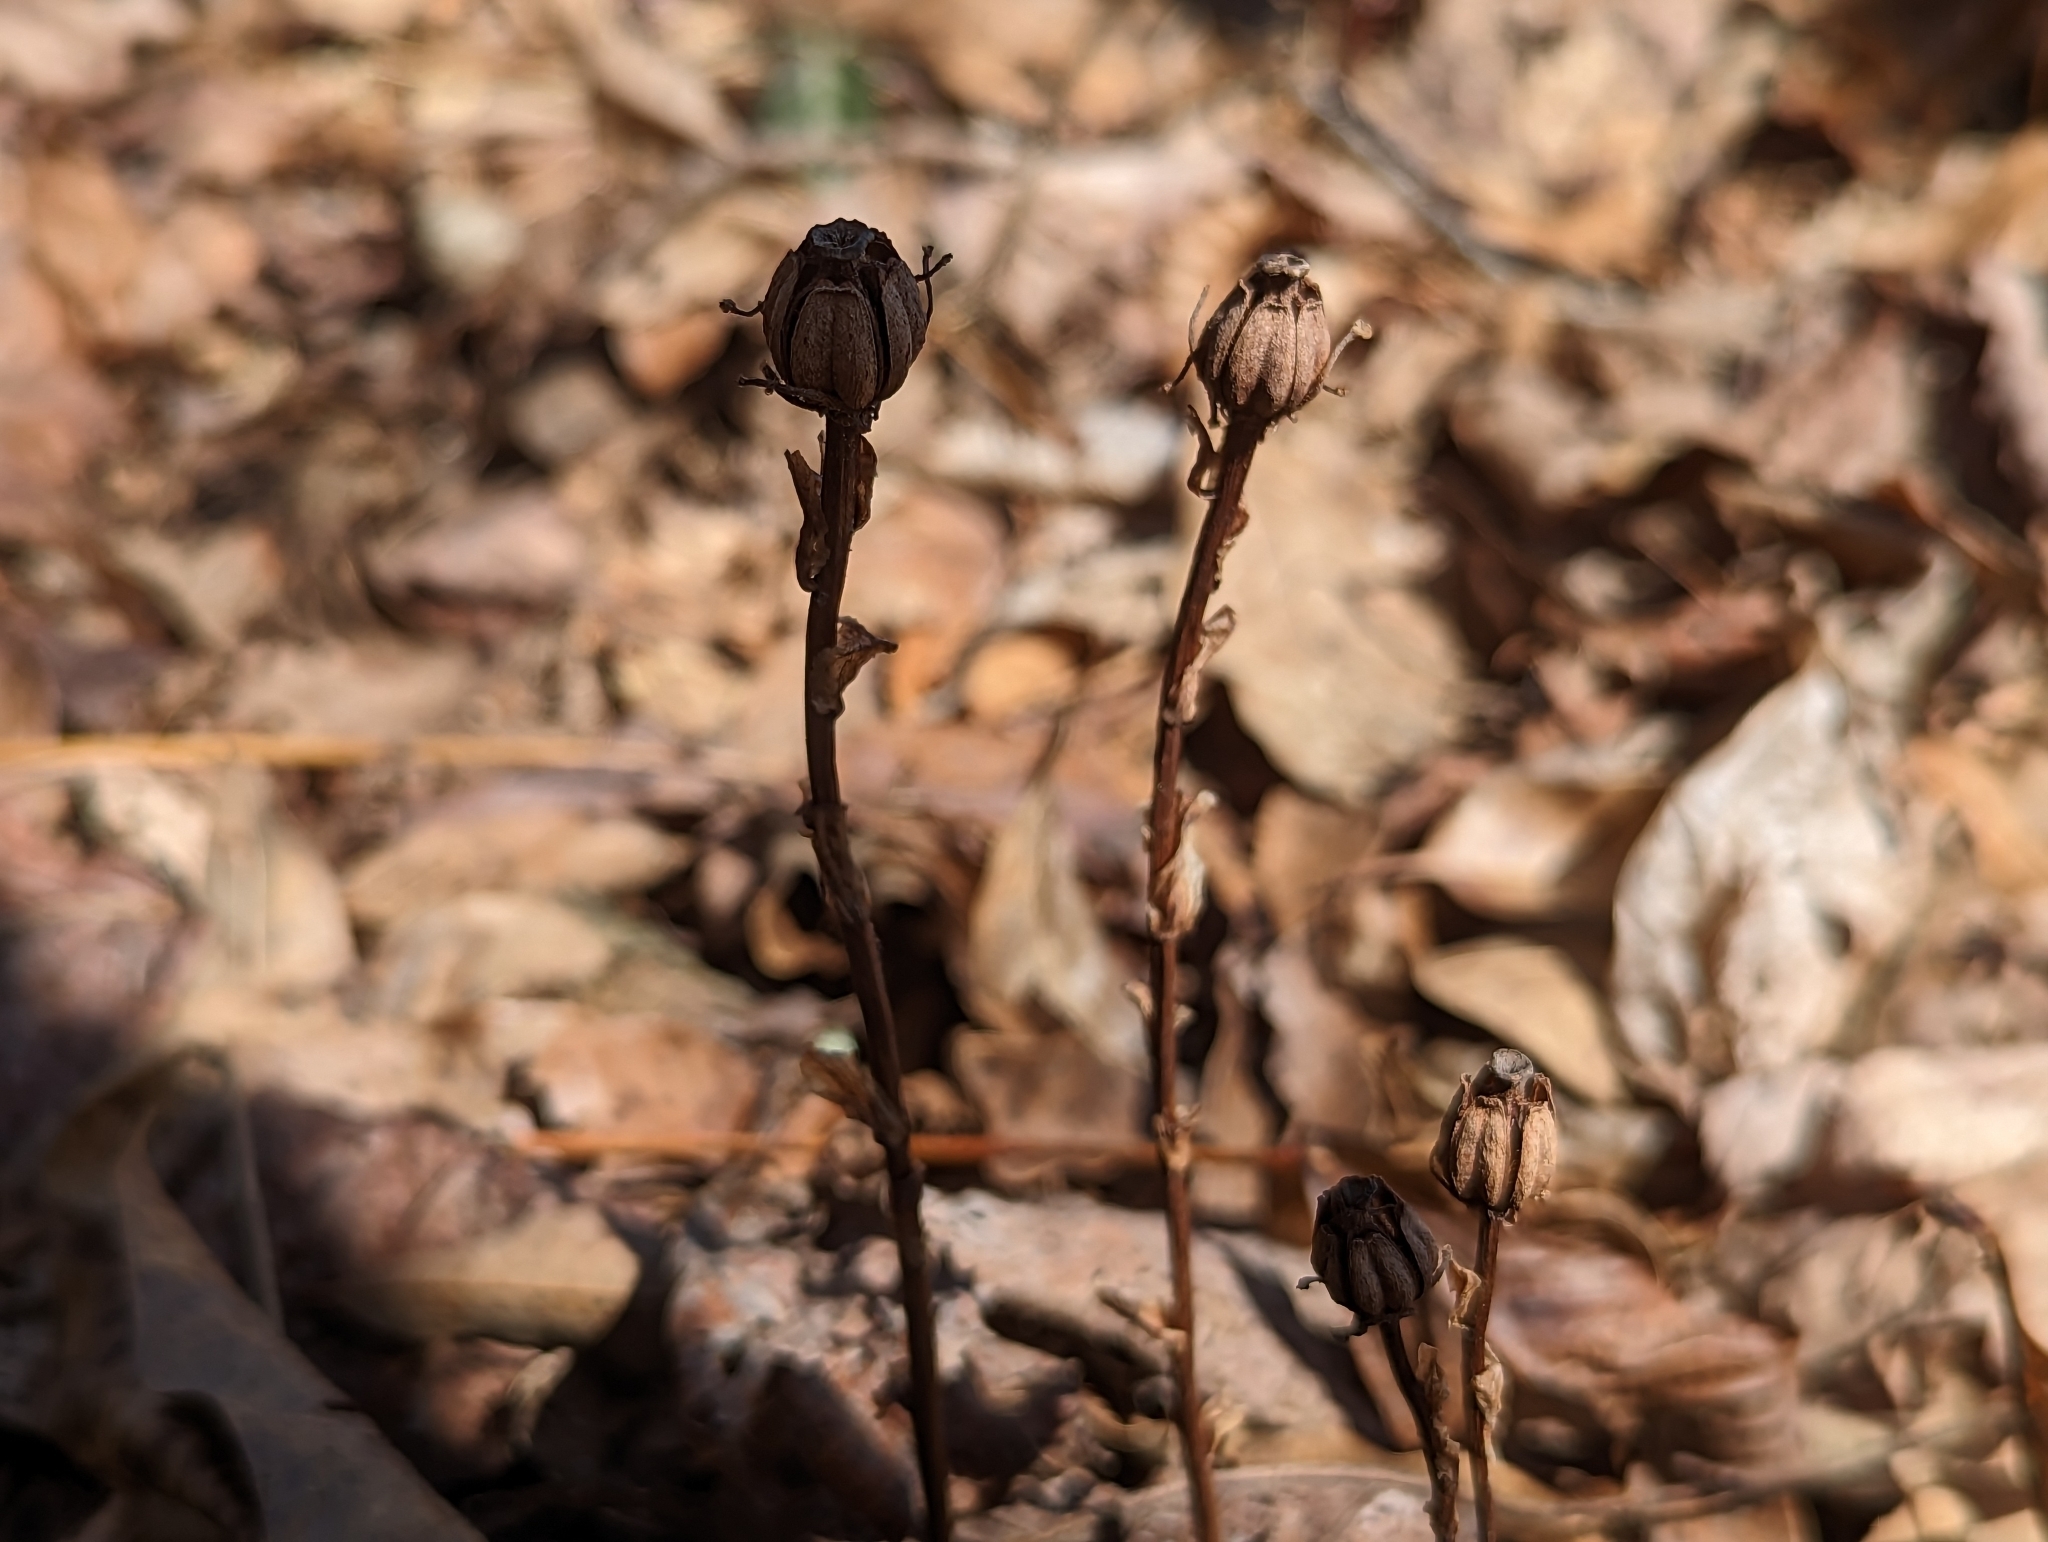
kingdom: Plantae
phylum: Tracheophyta
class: Magnoliopsida
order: Ericales
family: Ericaceae
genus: Monotropa
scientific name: Monotropa uniflora
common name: Convulsion root
